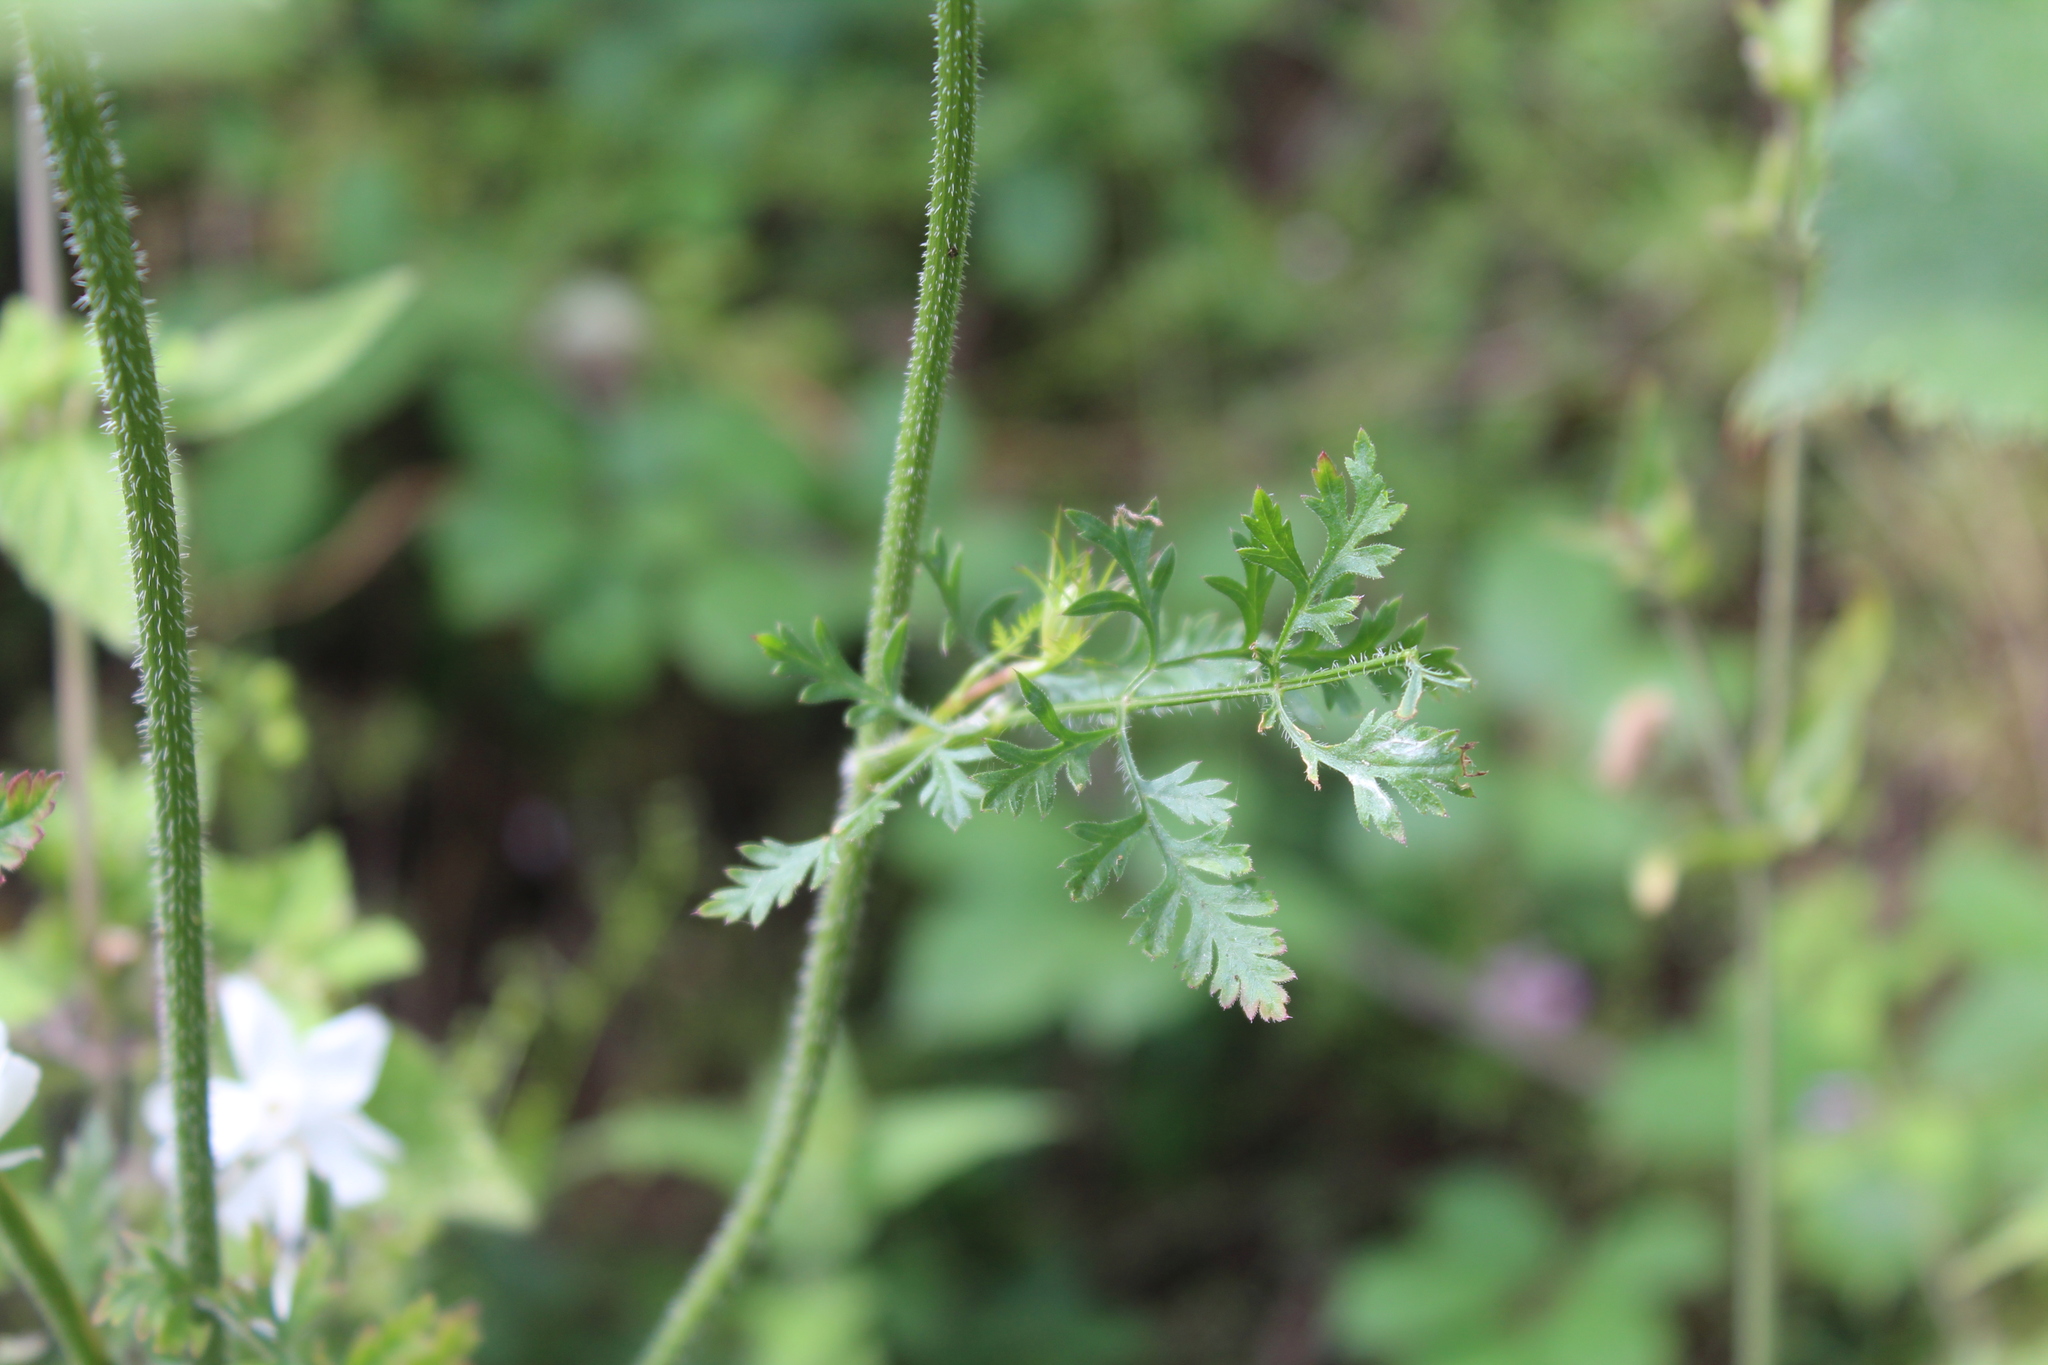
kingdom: Plantae
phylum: Tracheophyta
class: Magnoliopsida
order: Apiales
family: Apiaceae
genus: Daucus
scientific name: Daucus carota
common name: Wild carrot
